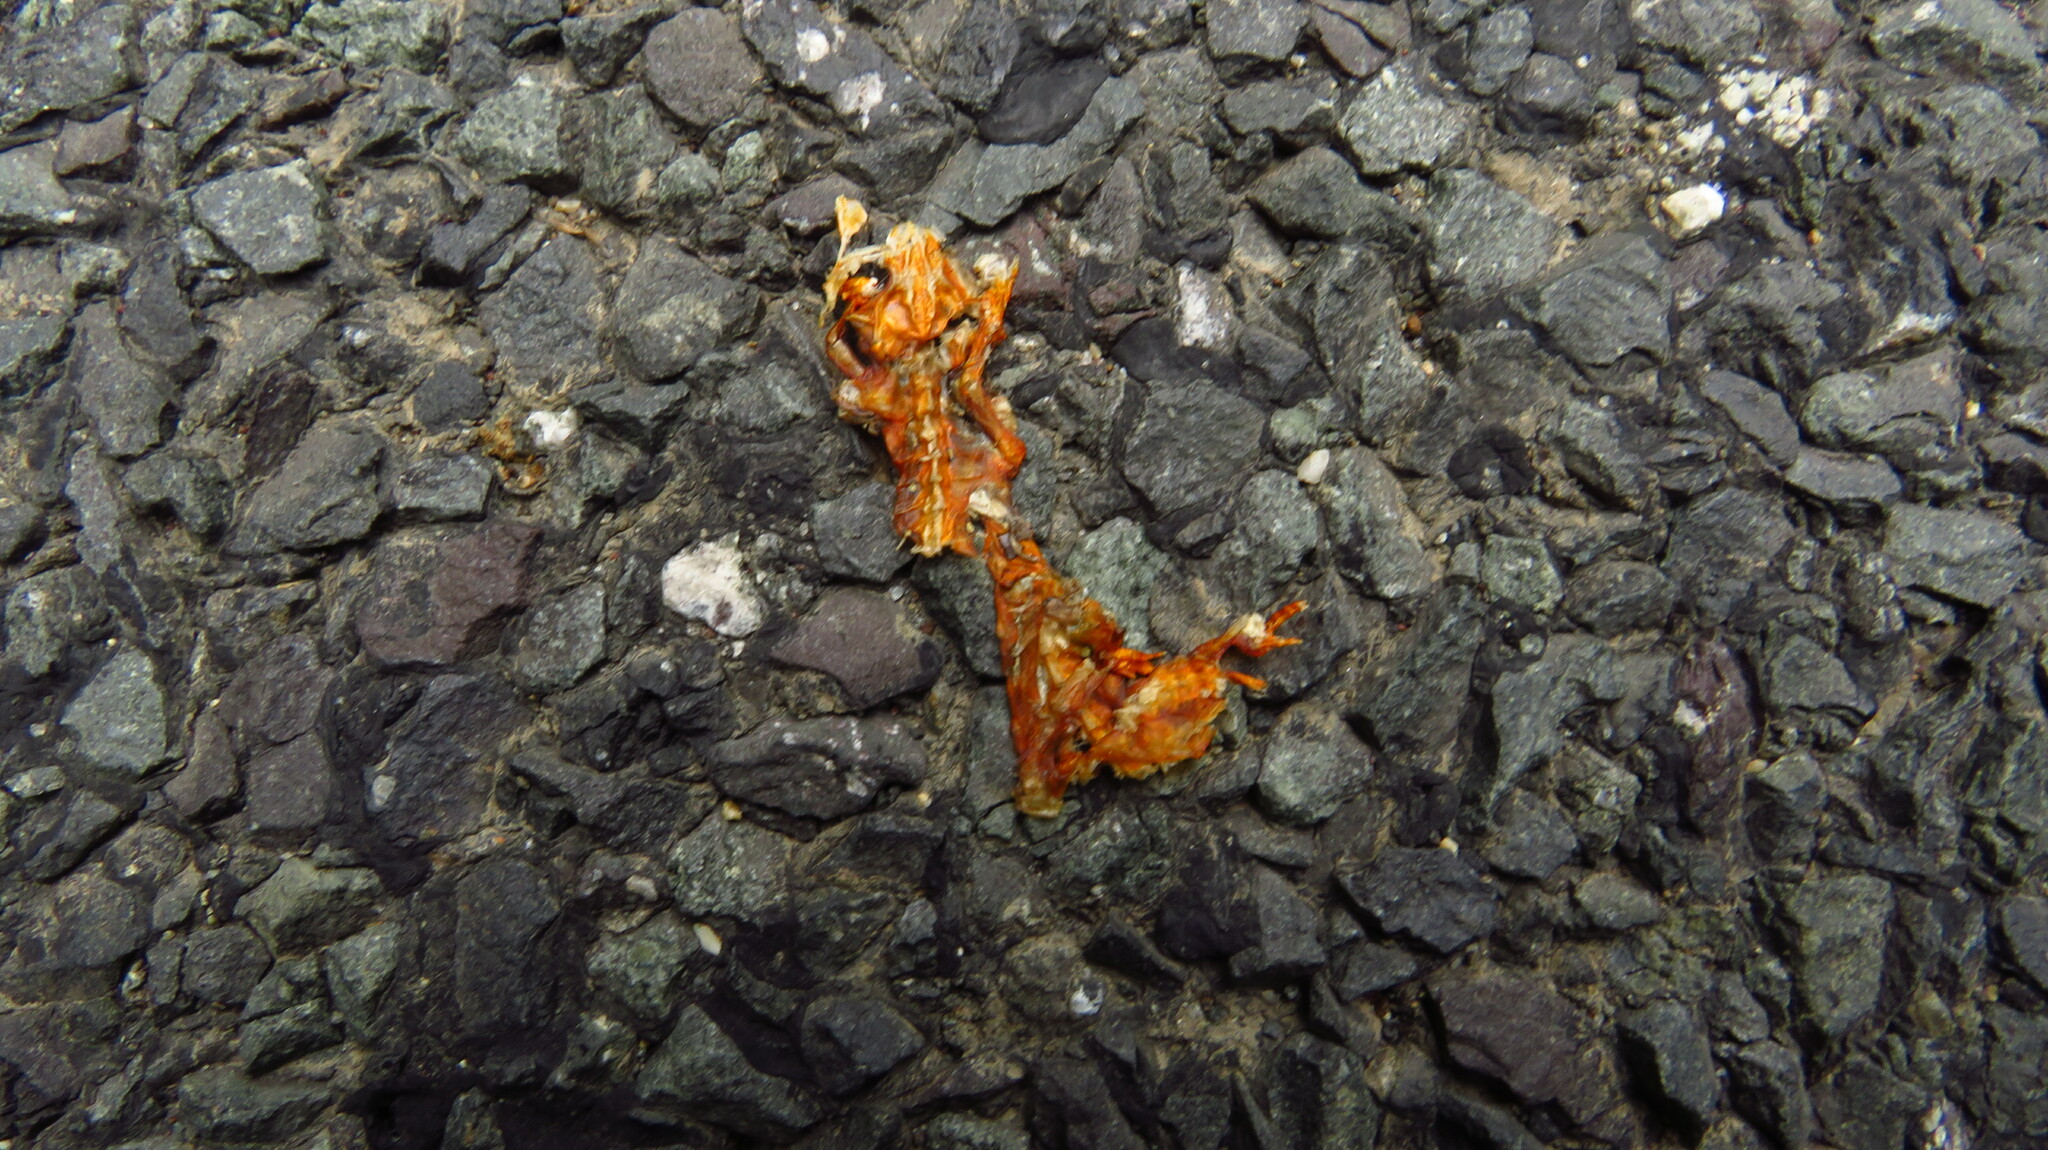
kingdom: Animalia
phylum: Chordata
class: Amphibia
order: Caudata
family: Salamandridae
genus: Notophthalmus
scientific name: Notophthalmus viridescens
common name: Eastern newt
